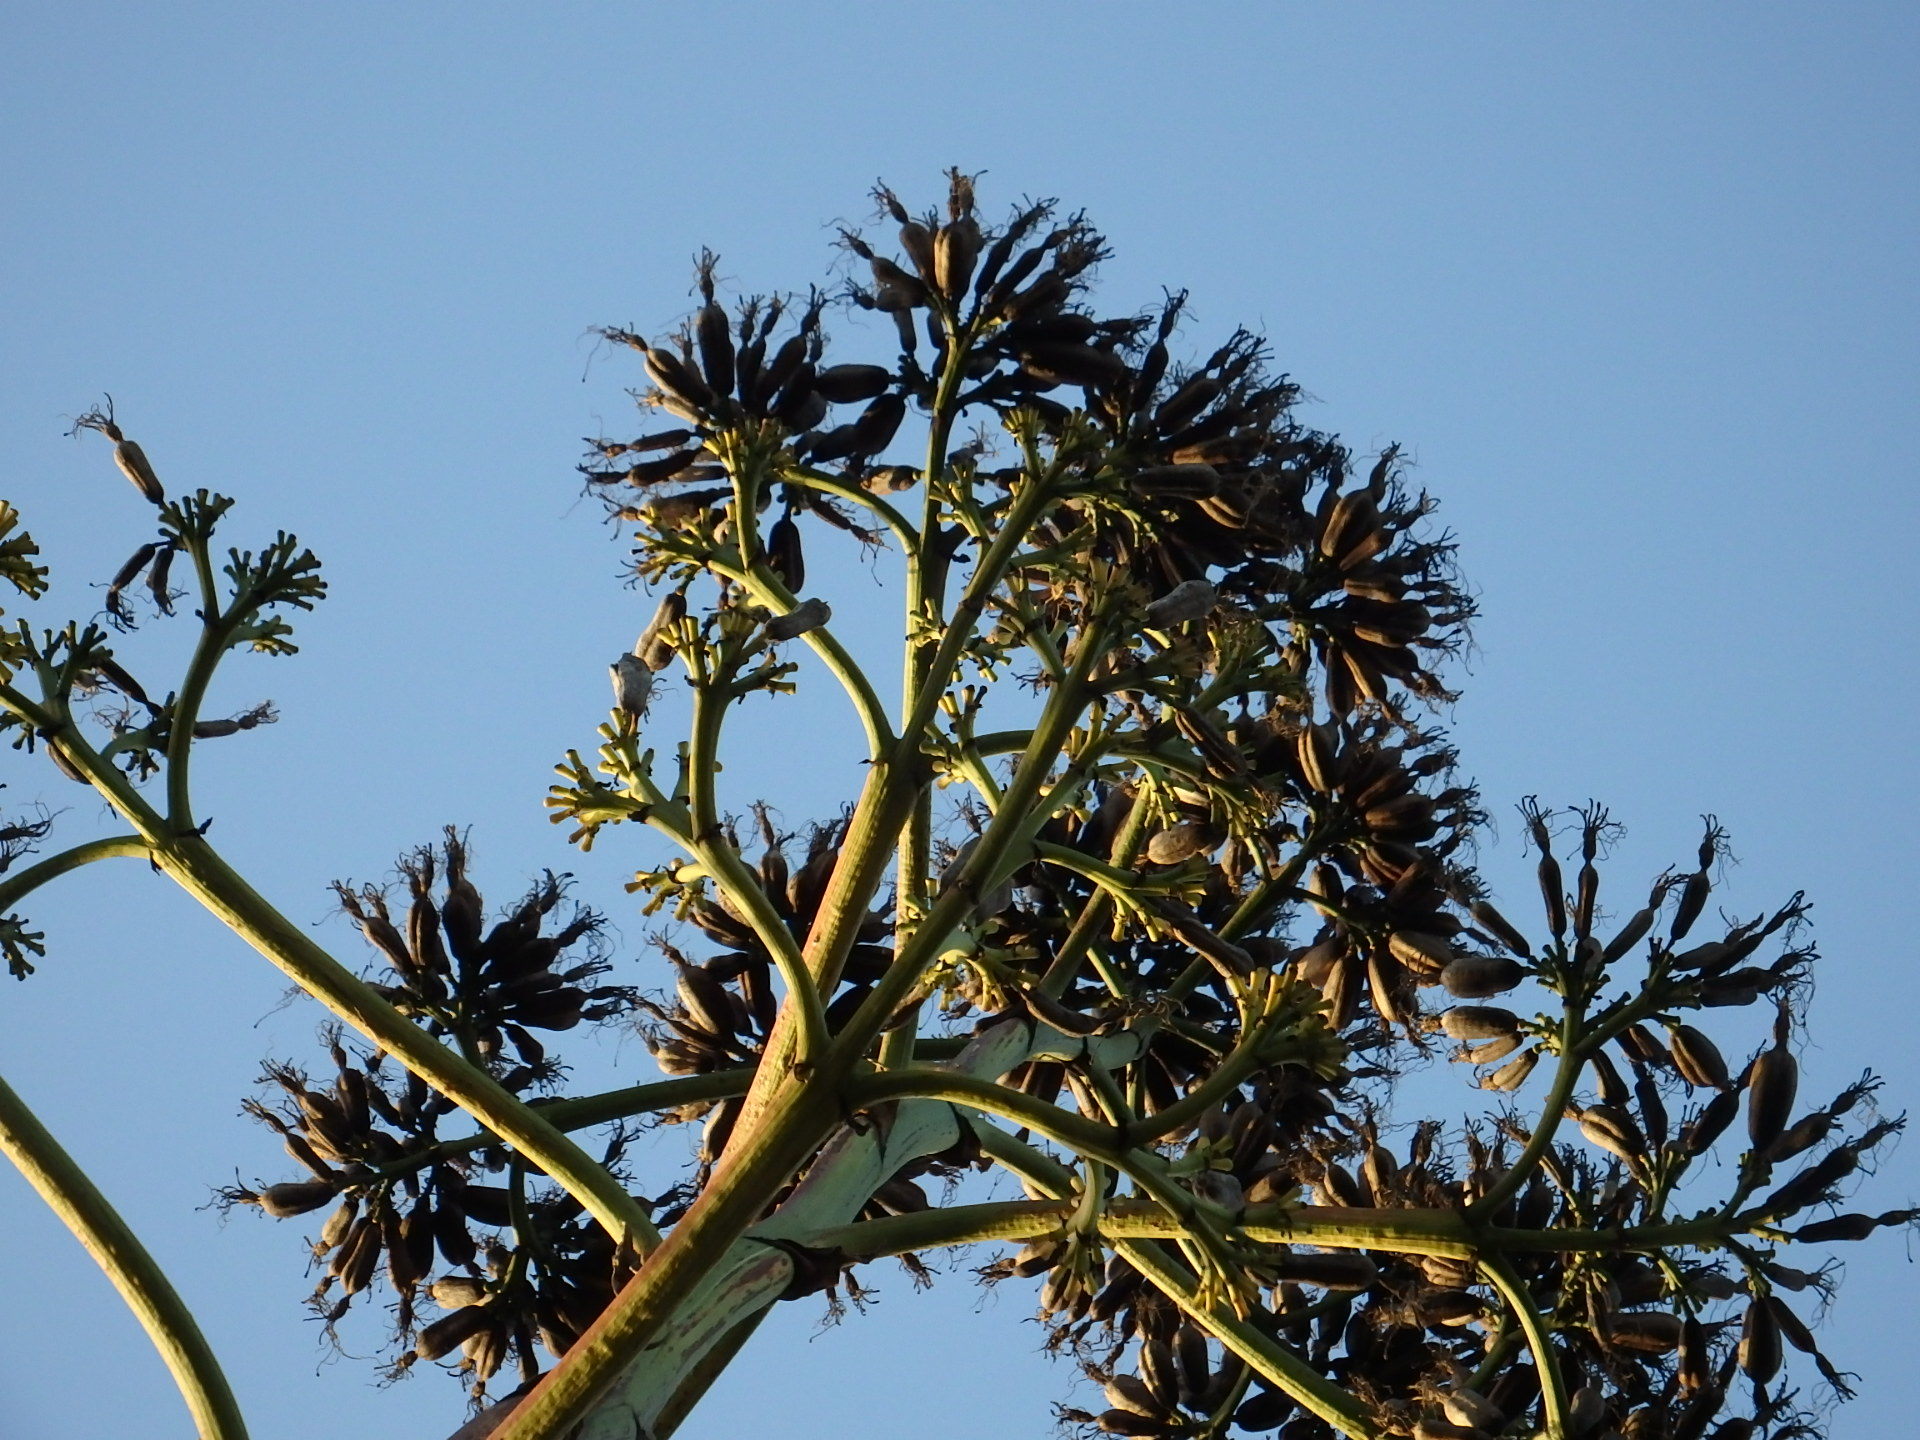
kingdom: Plantae
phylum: Tracheophyta
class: Liliopsida
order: Asparagales
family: Asparagaceae
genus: Agave
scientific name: Agave americana
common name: Centuryplant
